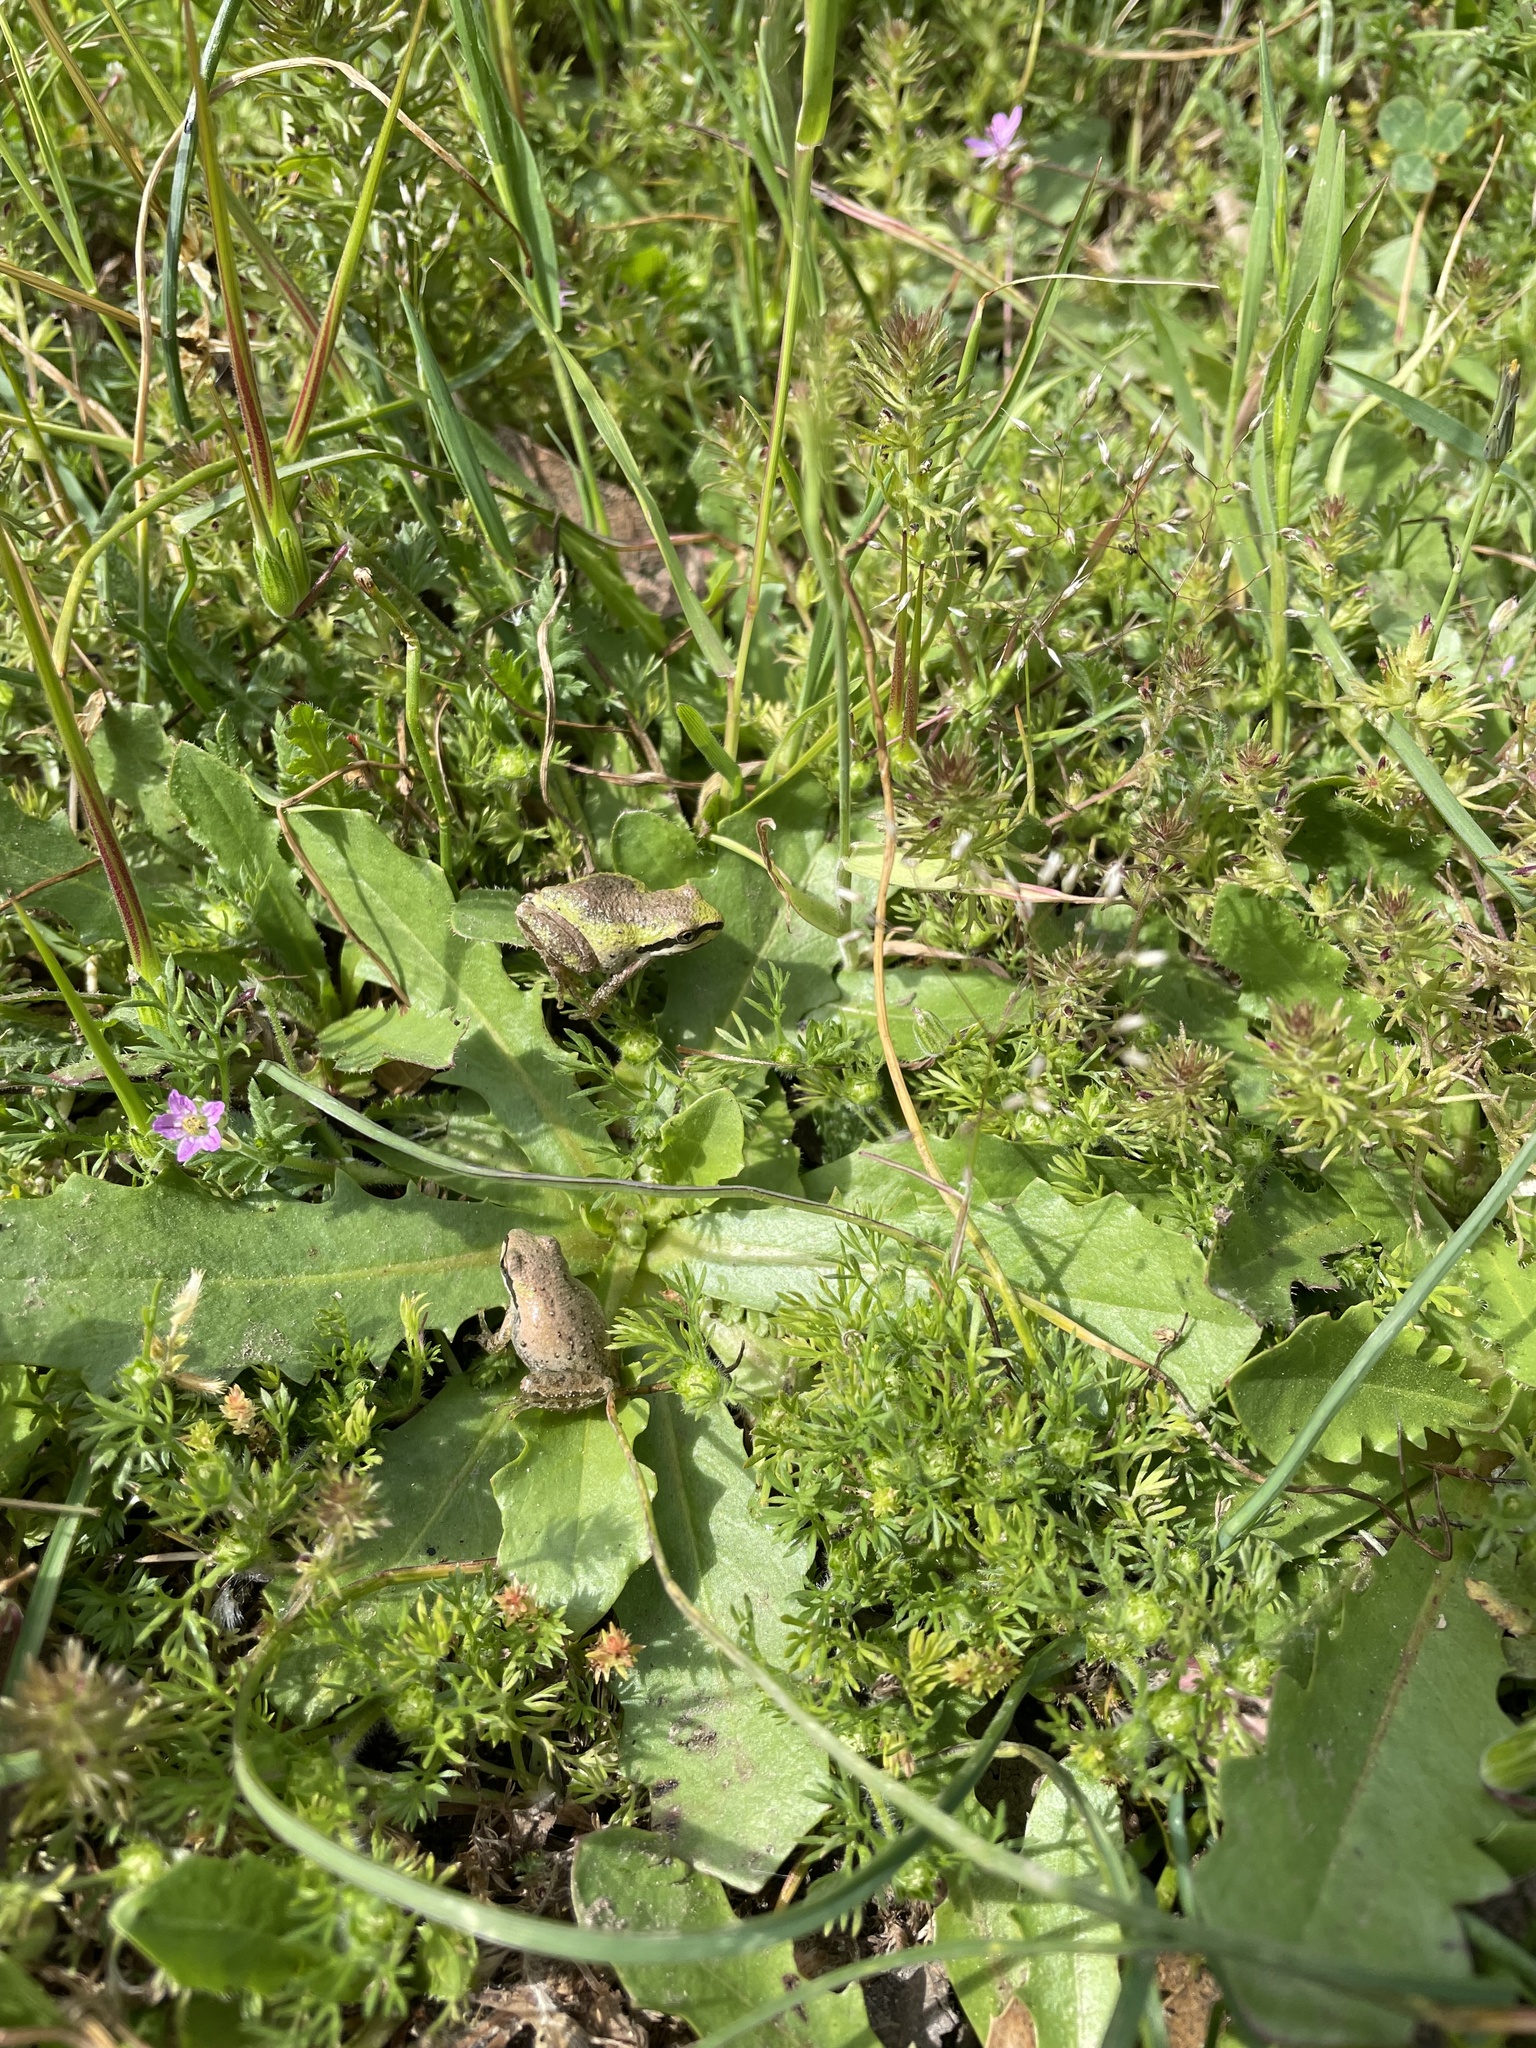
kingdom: Animalia
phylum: Chordata
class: Amphibia
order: Anura
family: Hylidae
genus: Pseudacris
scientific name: Pseudacris regilla
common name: Pacific chorus frog
